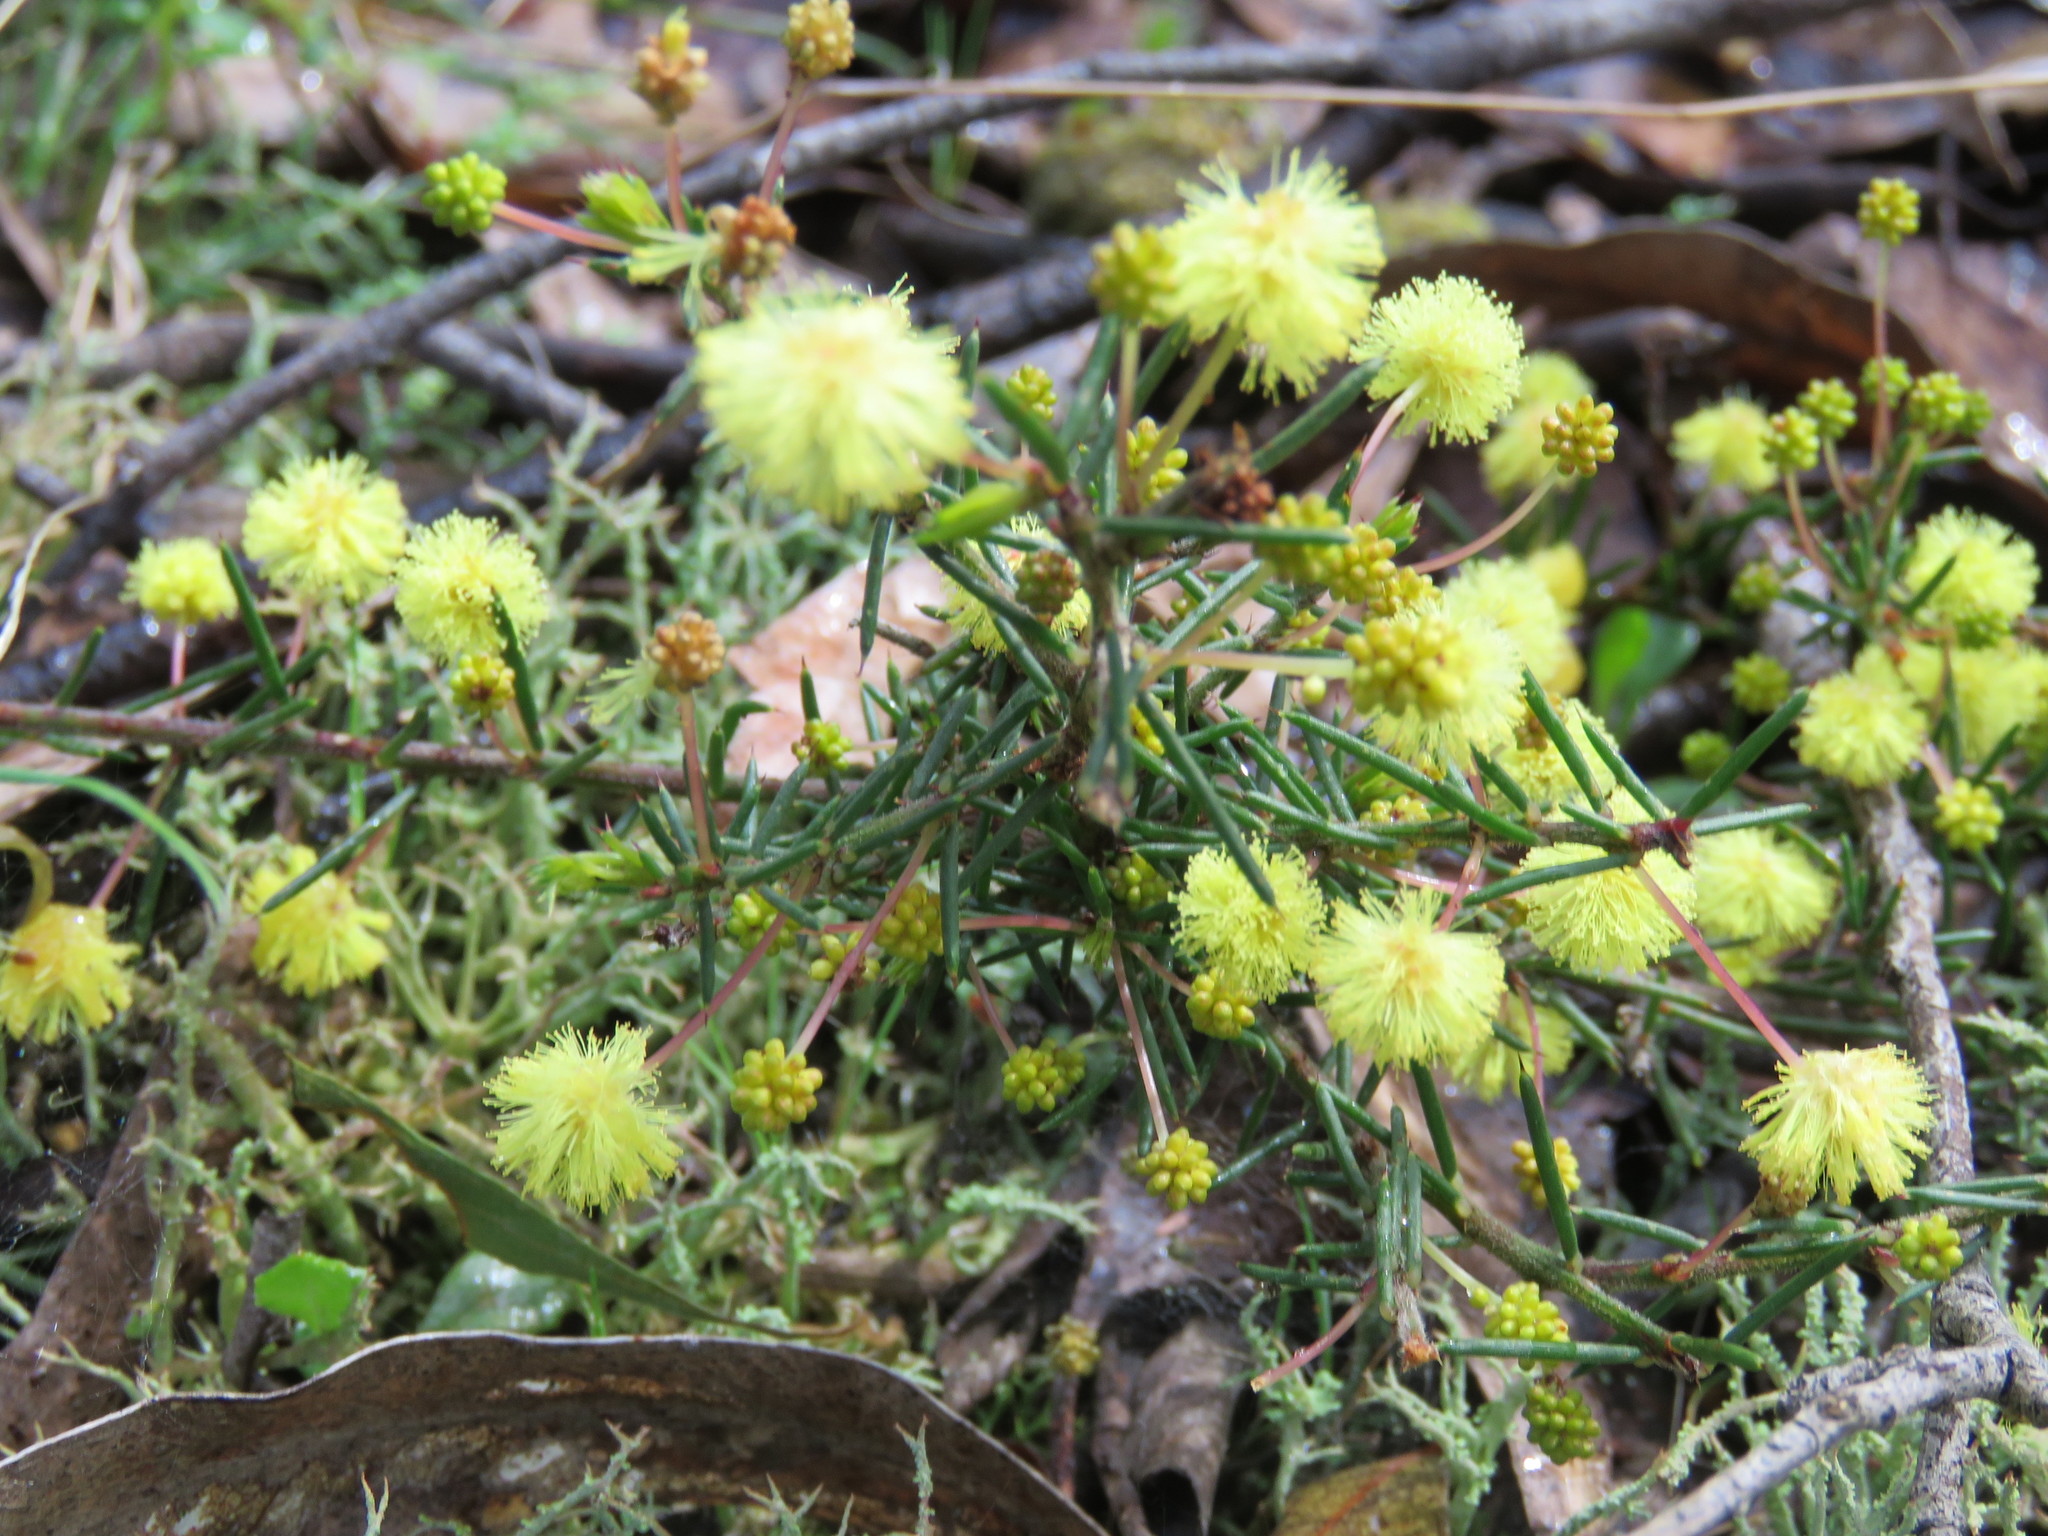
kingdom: Plantae
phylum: Tracheophyta
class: Magnoliopsida
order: Fabales
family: Fabaceae
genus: Acacia
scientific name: Acacia aculeatissima
